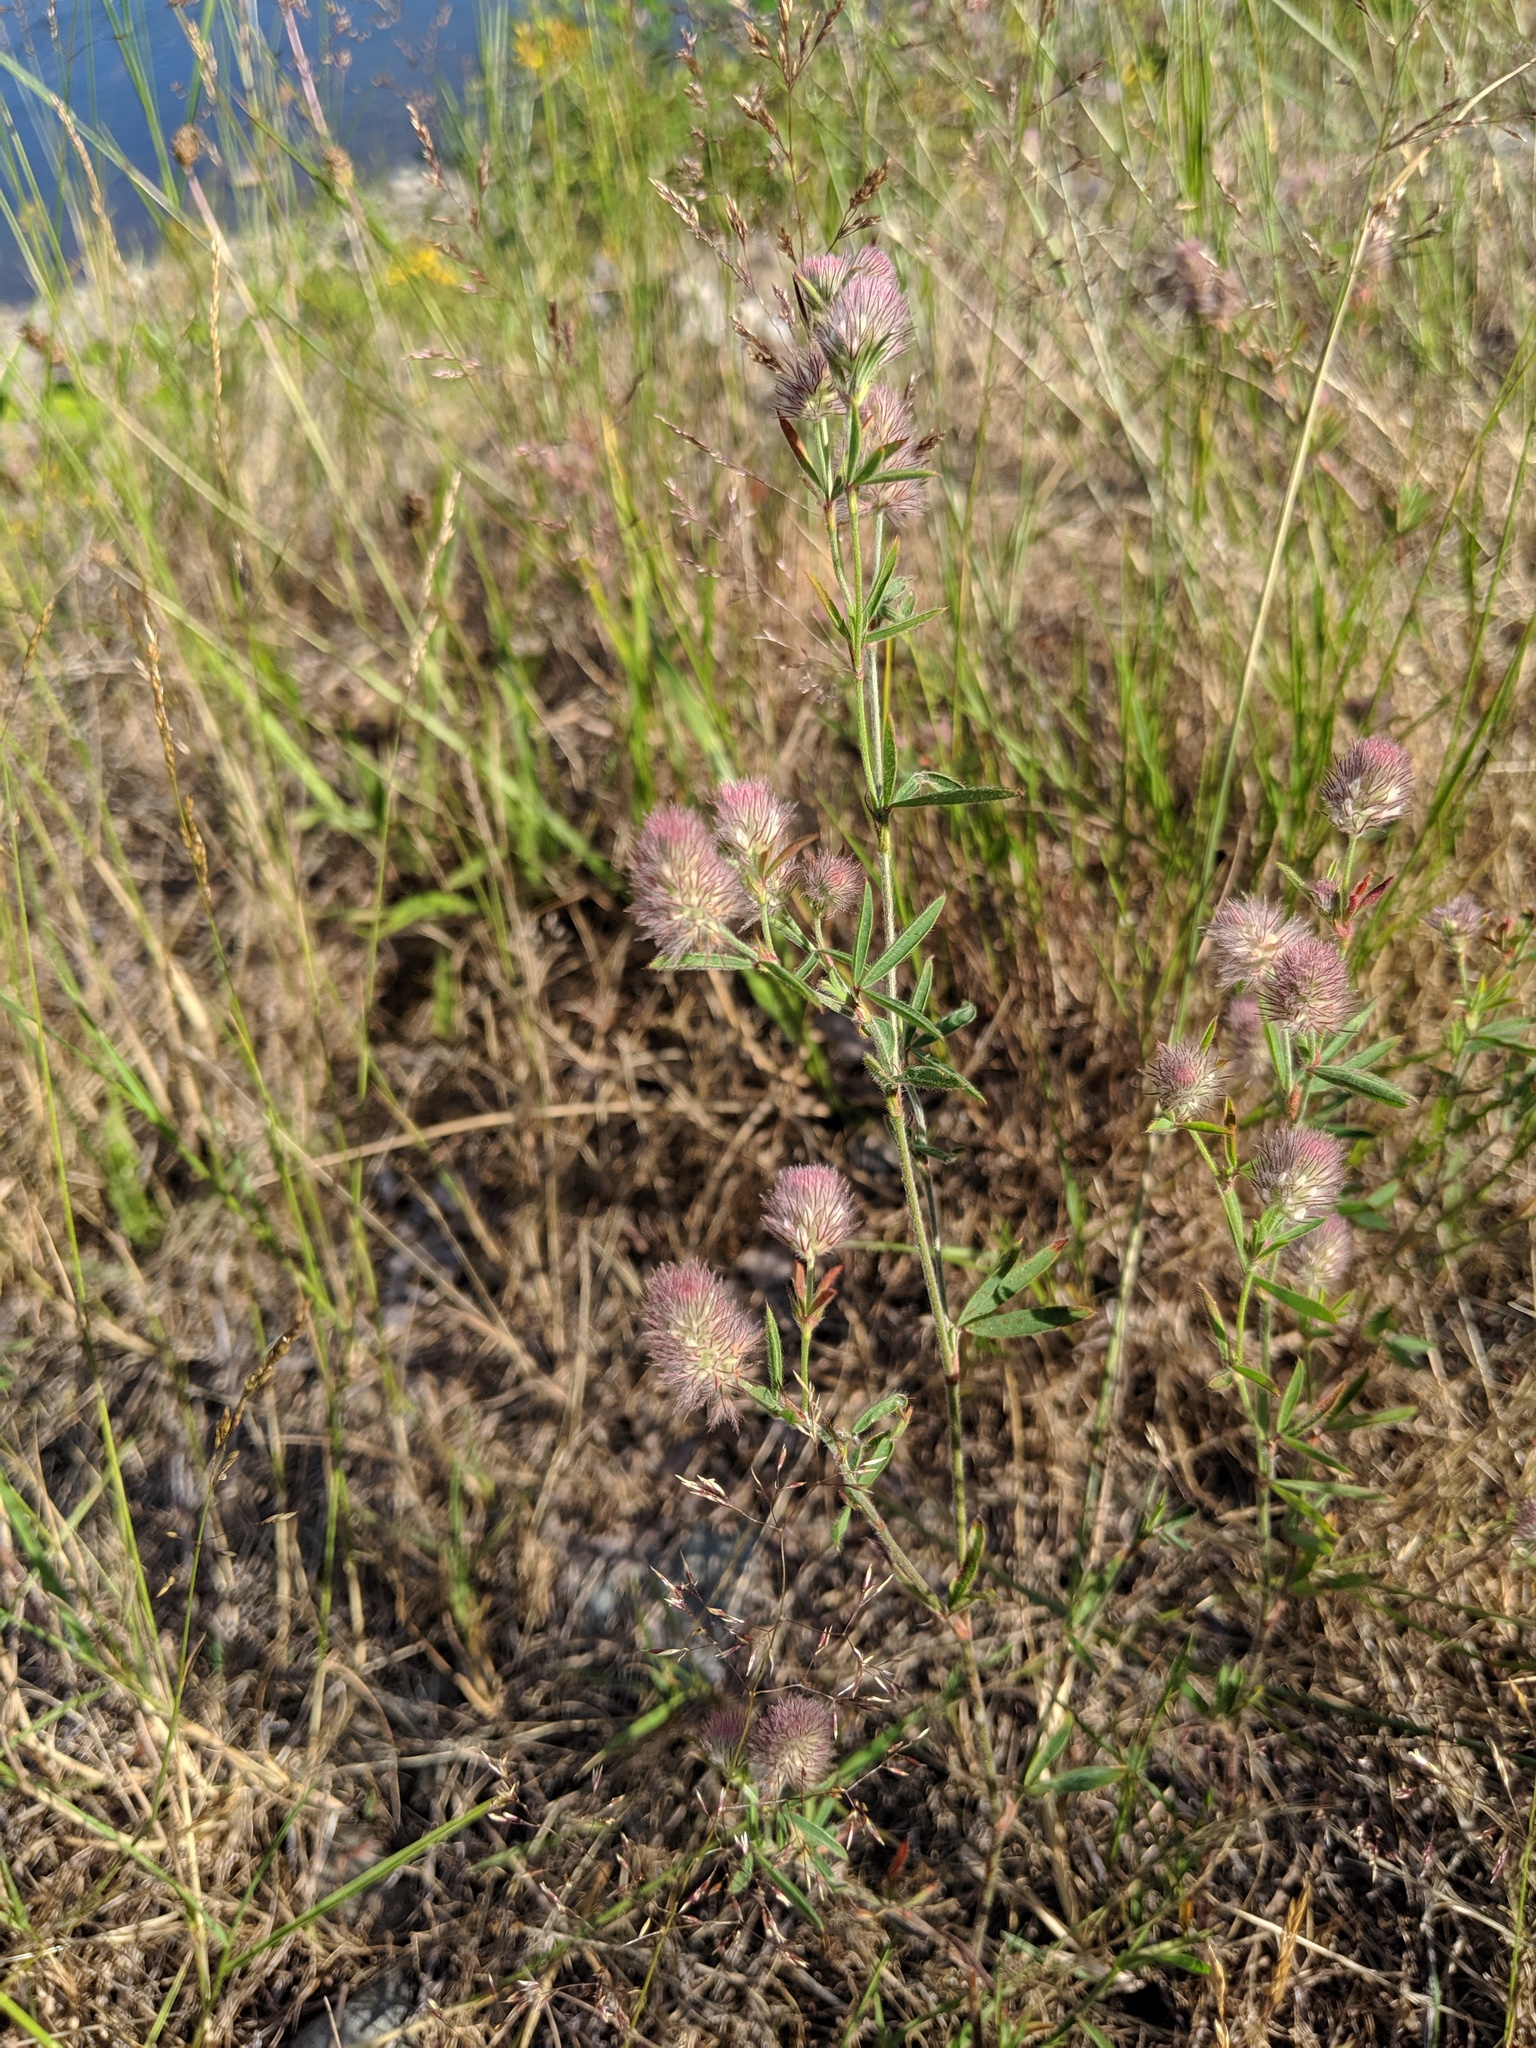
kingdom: Plantae
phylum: Tracheophyta
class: Magnoliopsida
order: Fabales
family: Fabaceae
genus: Trifolium
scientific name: Trifolium arvense
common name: Hare's-foot clover
